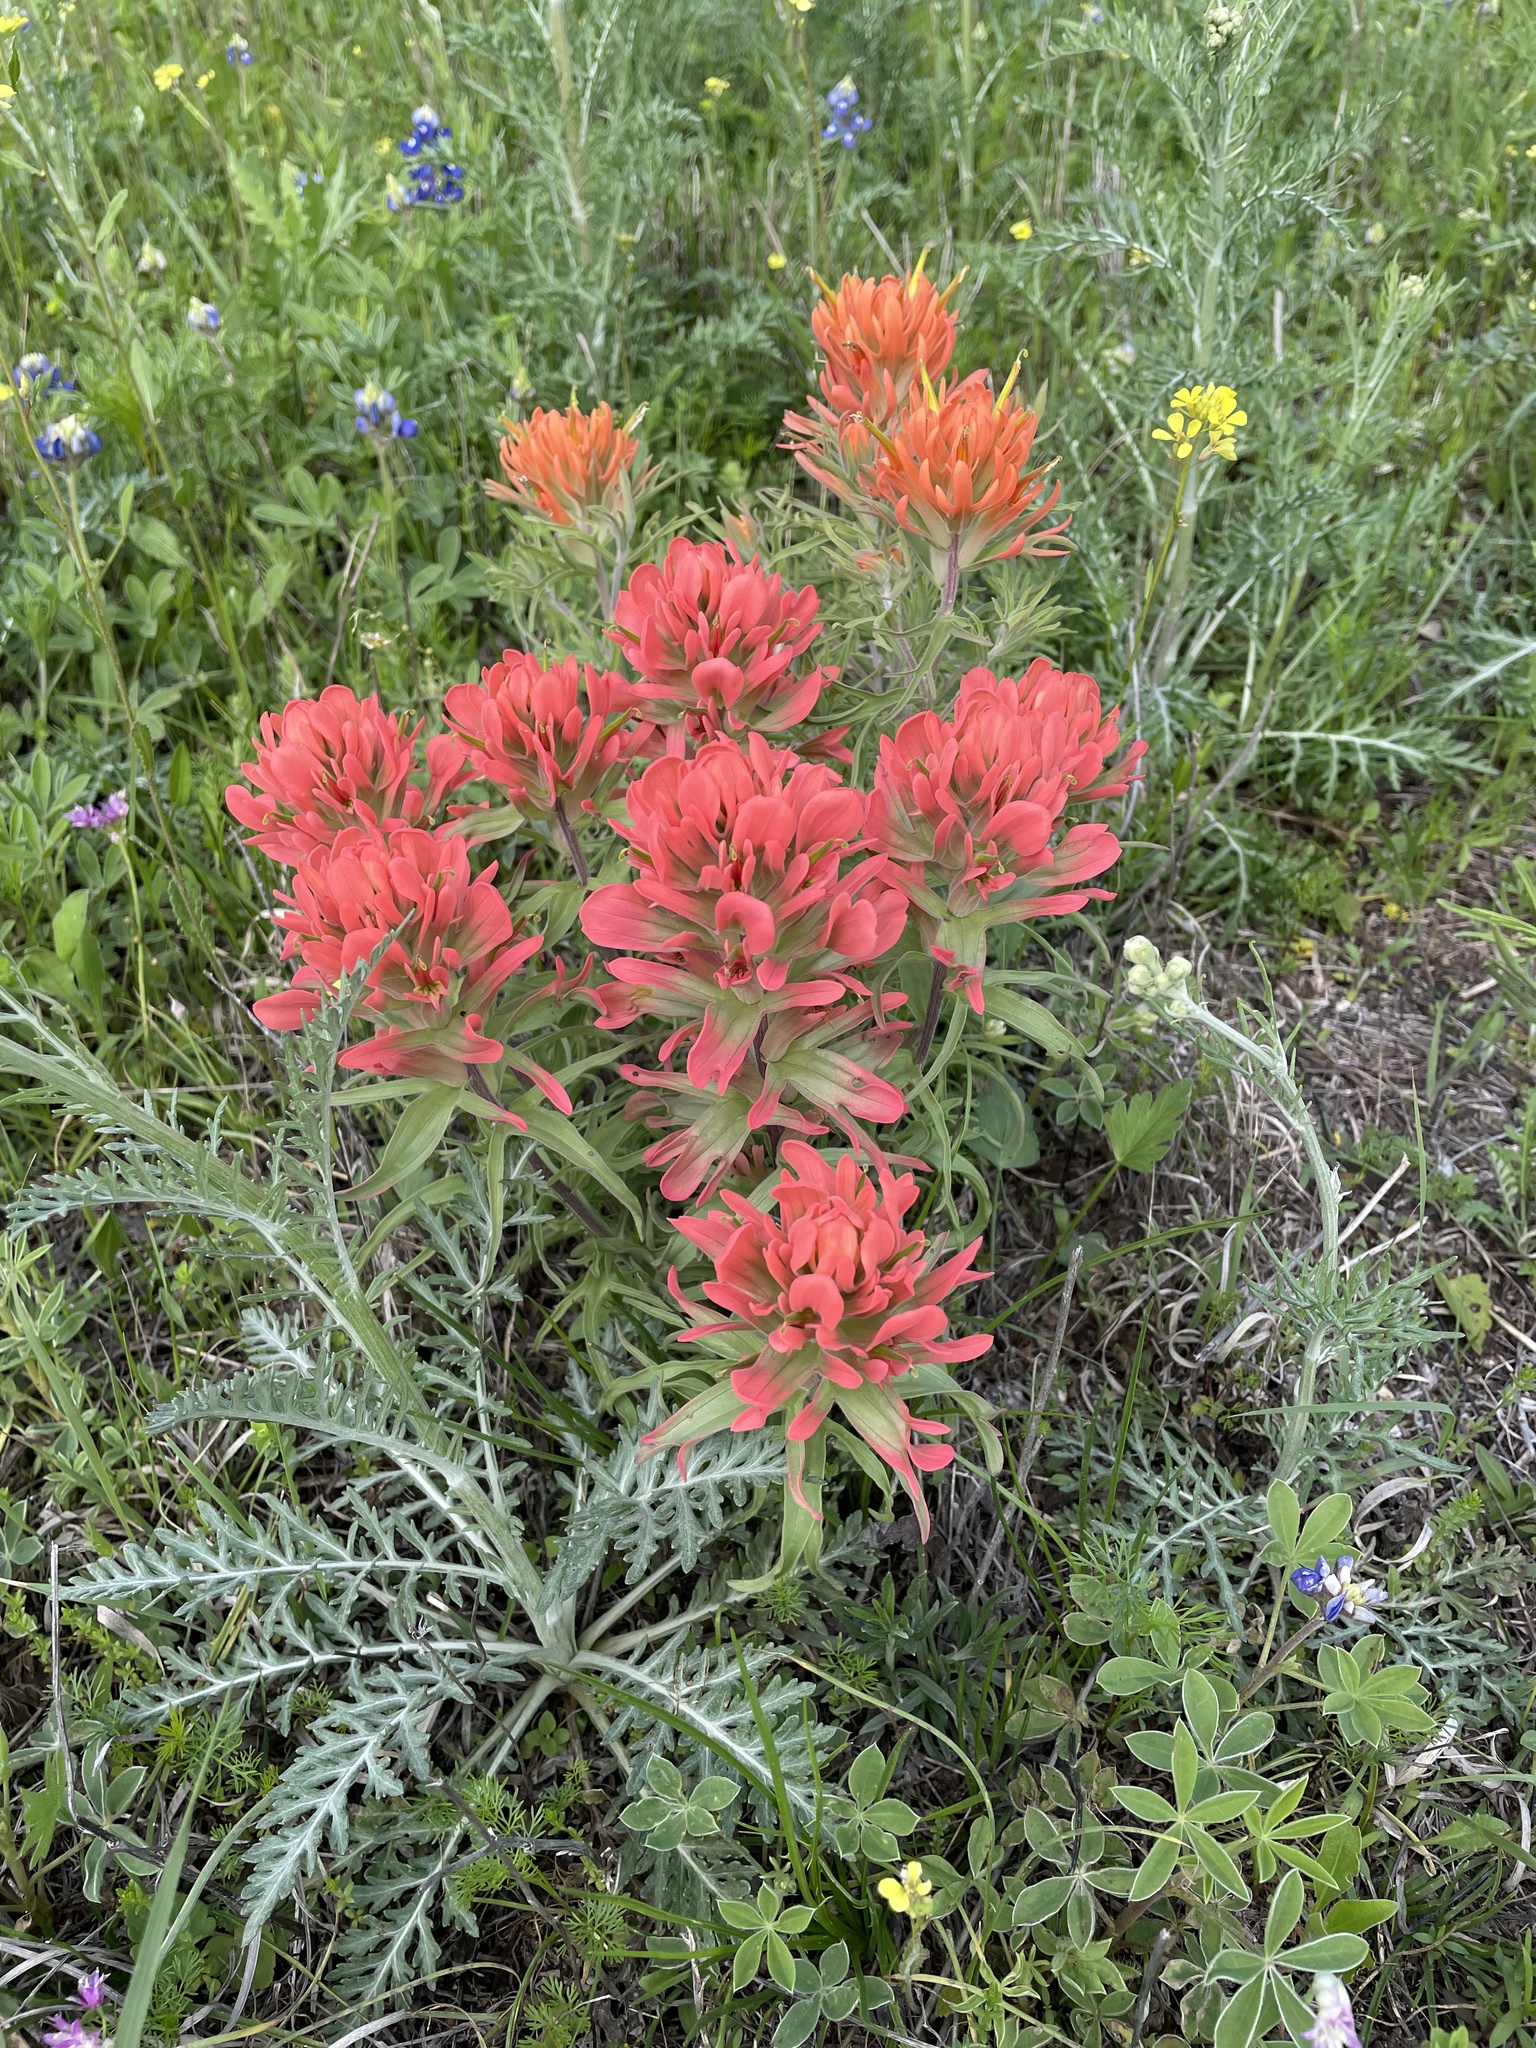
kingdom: Plantae
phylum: Tracheophyta
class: Magnoliopsida
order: Lamiales
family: Orobanchaceae
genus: Castilleja
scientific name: Castilleja lindheimeri
